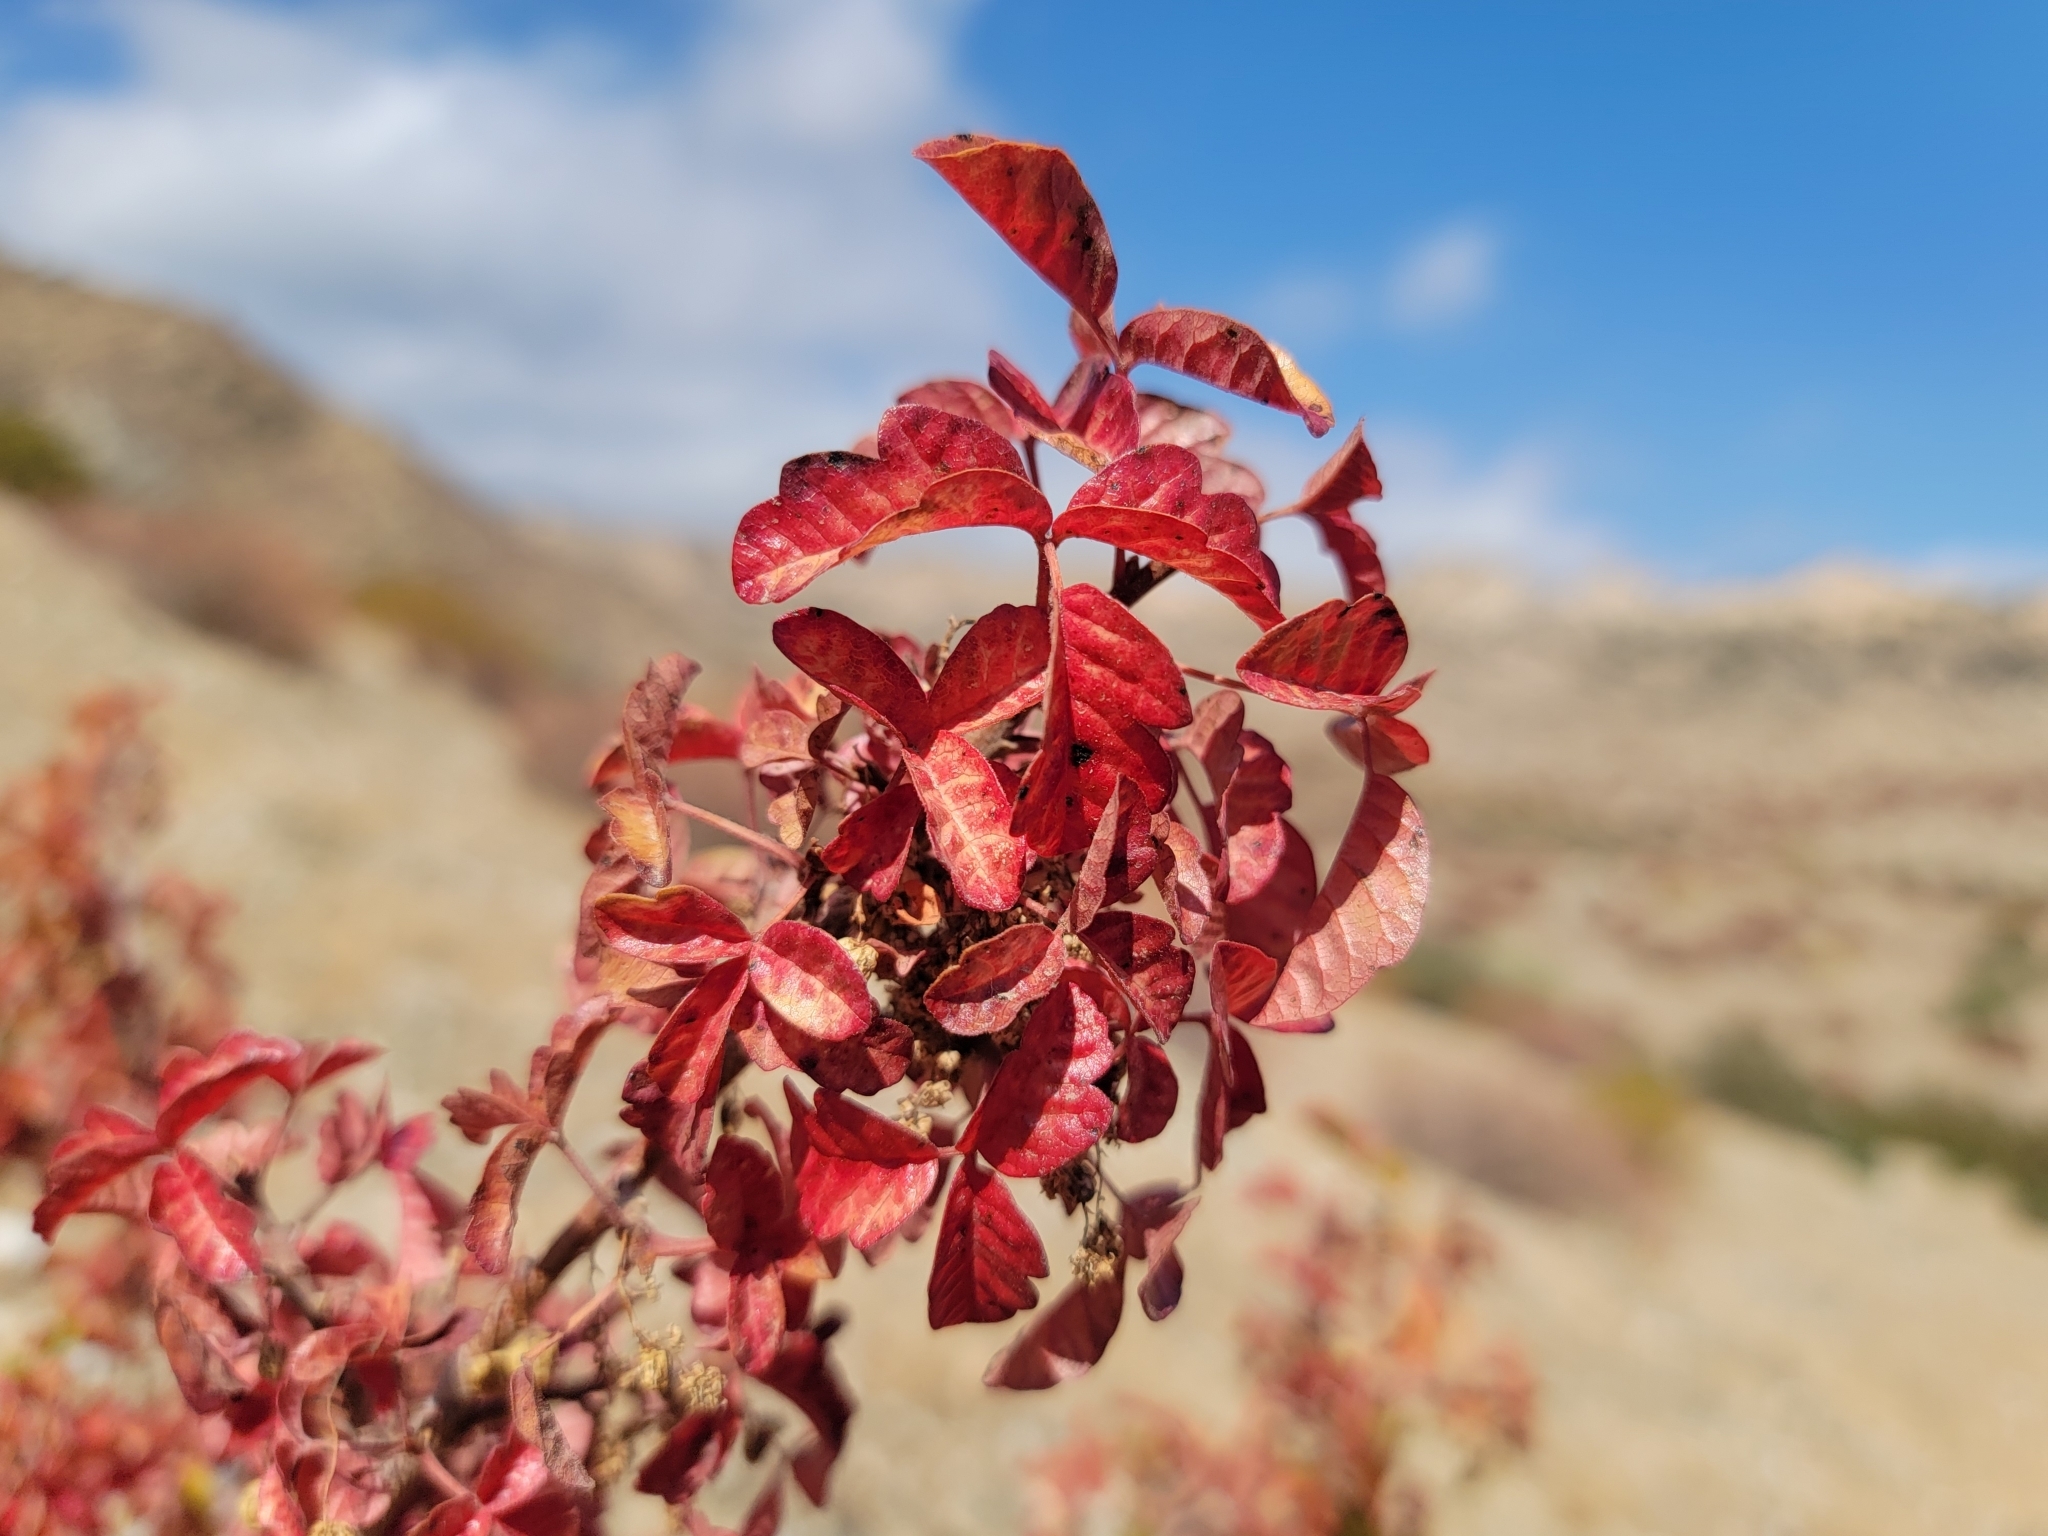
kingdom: Plantae
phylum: Tracheophyta
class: Magnoliopsida
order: Sapindales
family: Anacardiaceae
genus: Toxicodendron
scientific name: Toxicodendron diversilobum
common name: Pacific poison-oak
